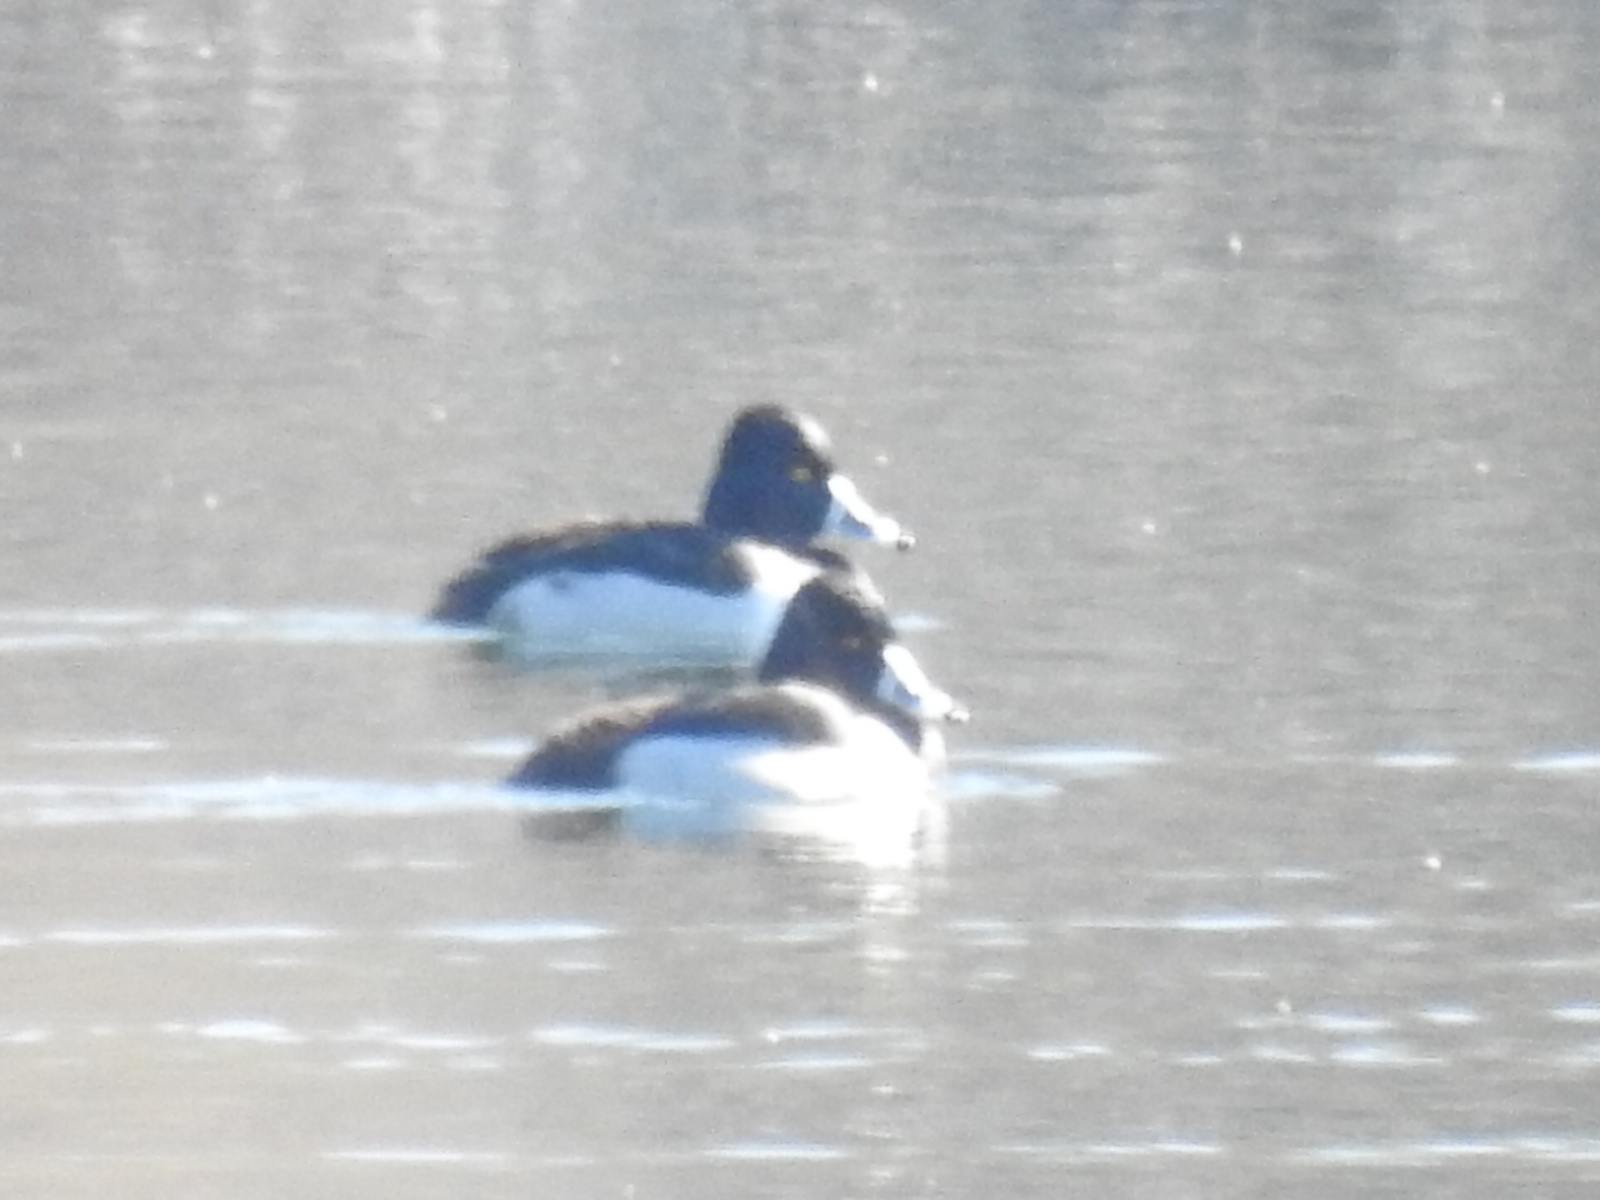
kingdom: Animalia
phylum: Chordata
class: Aves
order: Anseriformes
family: Anatidae
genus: Aythya
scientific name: Aythya collaris
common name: Ring-necked duck
